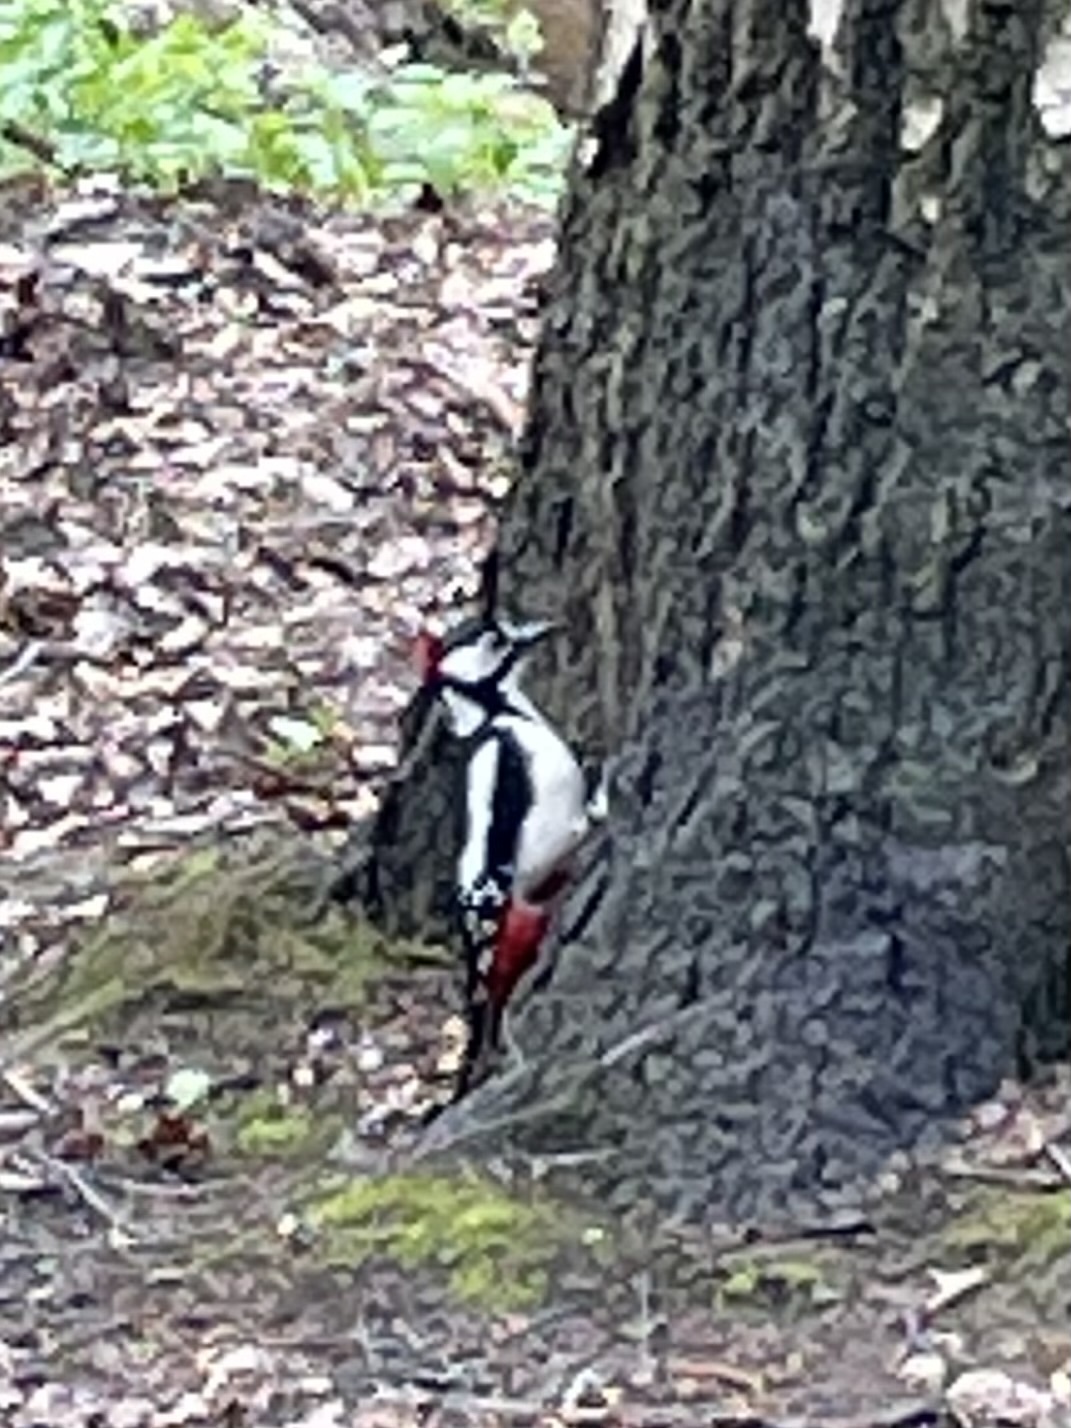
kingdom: Animalia
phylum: Chordata
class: Aves
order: Piciformes
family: Picidae
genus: Dendrocopos
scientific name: Dendrocopos major
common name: Great spotted woodpecker
